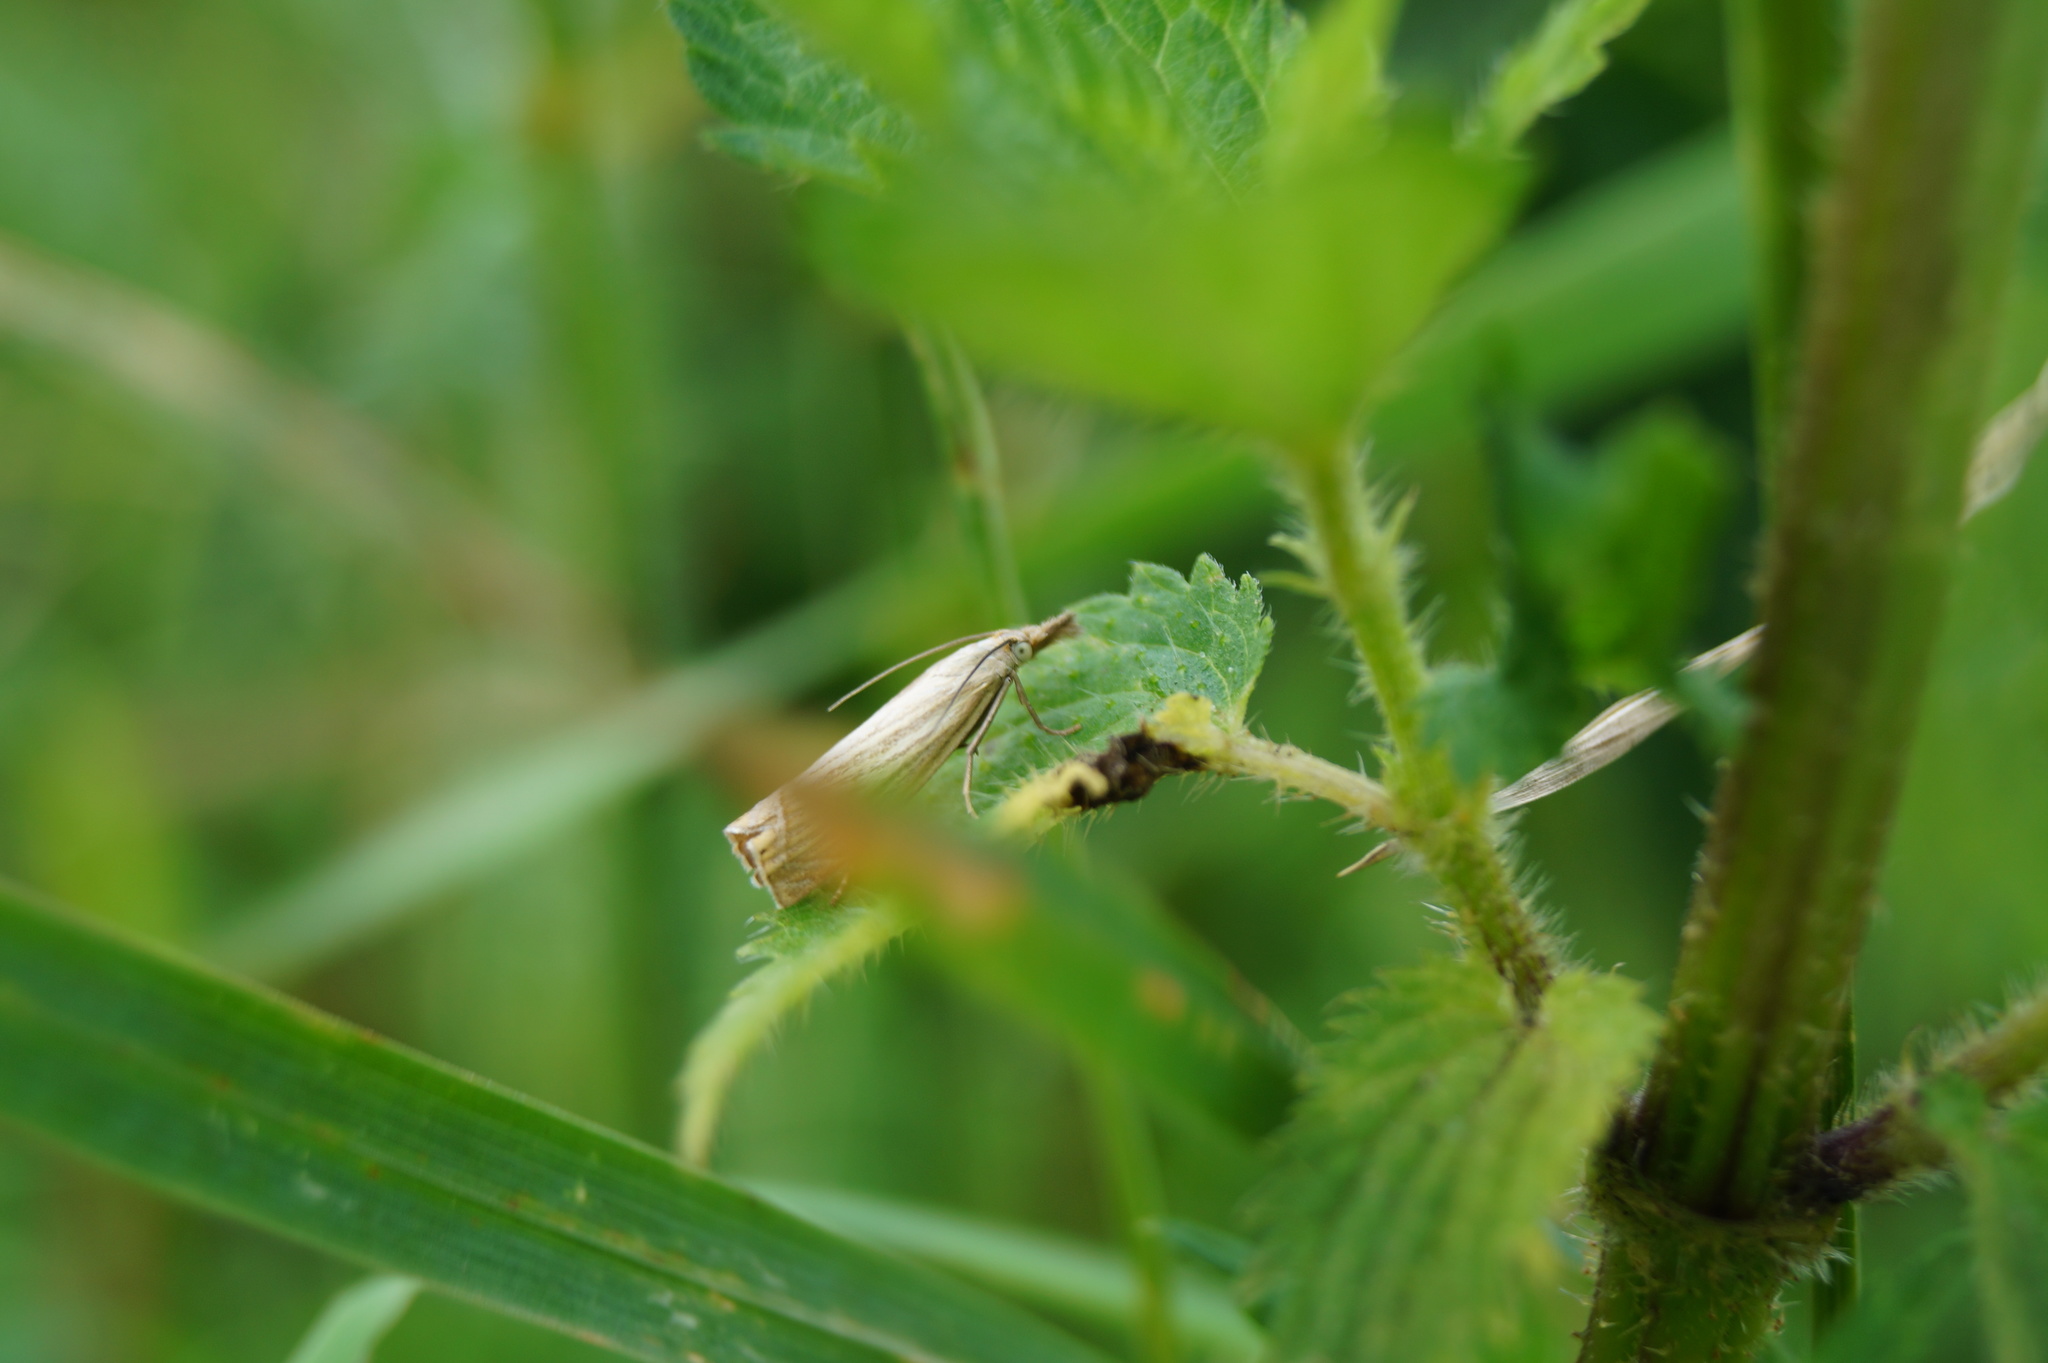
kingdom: Animalia
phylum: Arthropoda
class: Insecta
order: Lepidoptera
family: Crambidae
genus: Chrysoteuchia
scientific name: Chrysoteuchia culmella
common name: Garden grass-veneer
